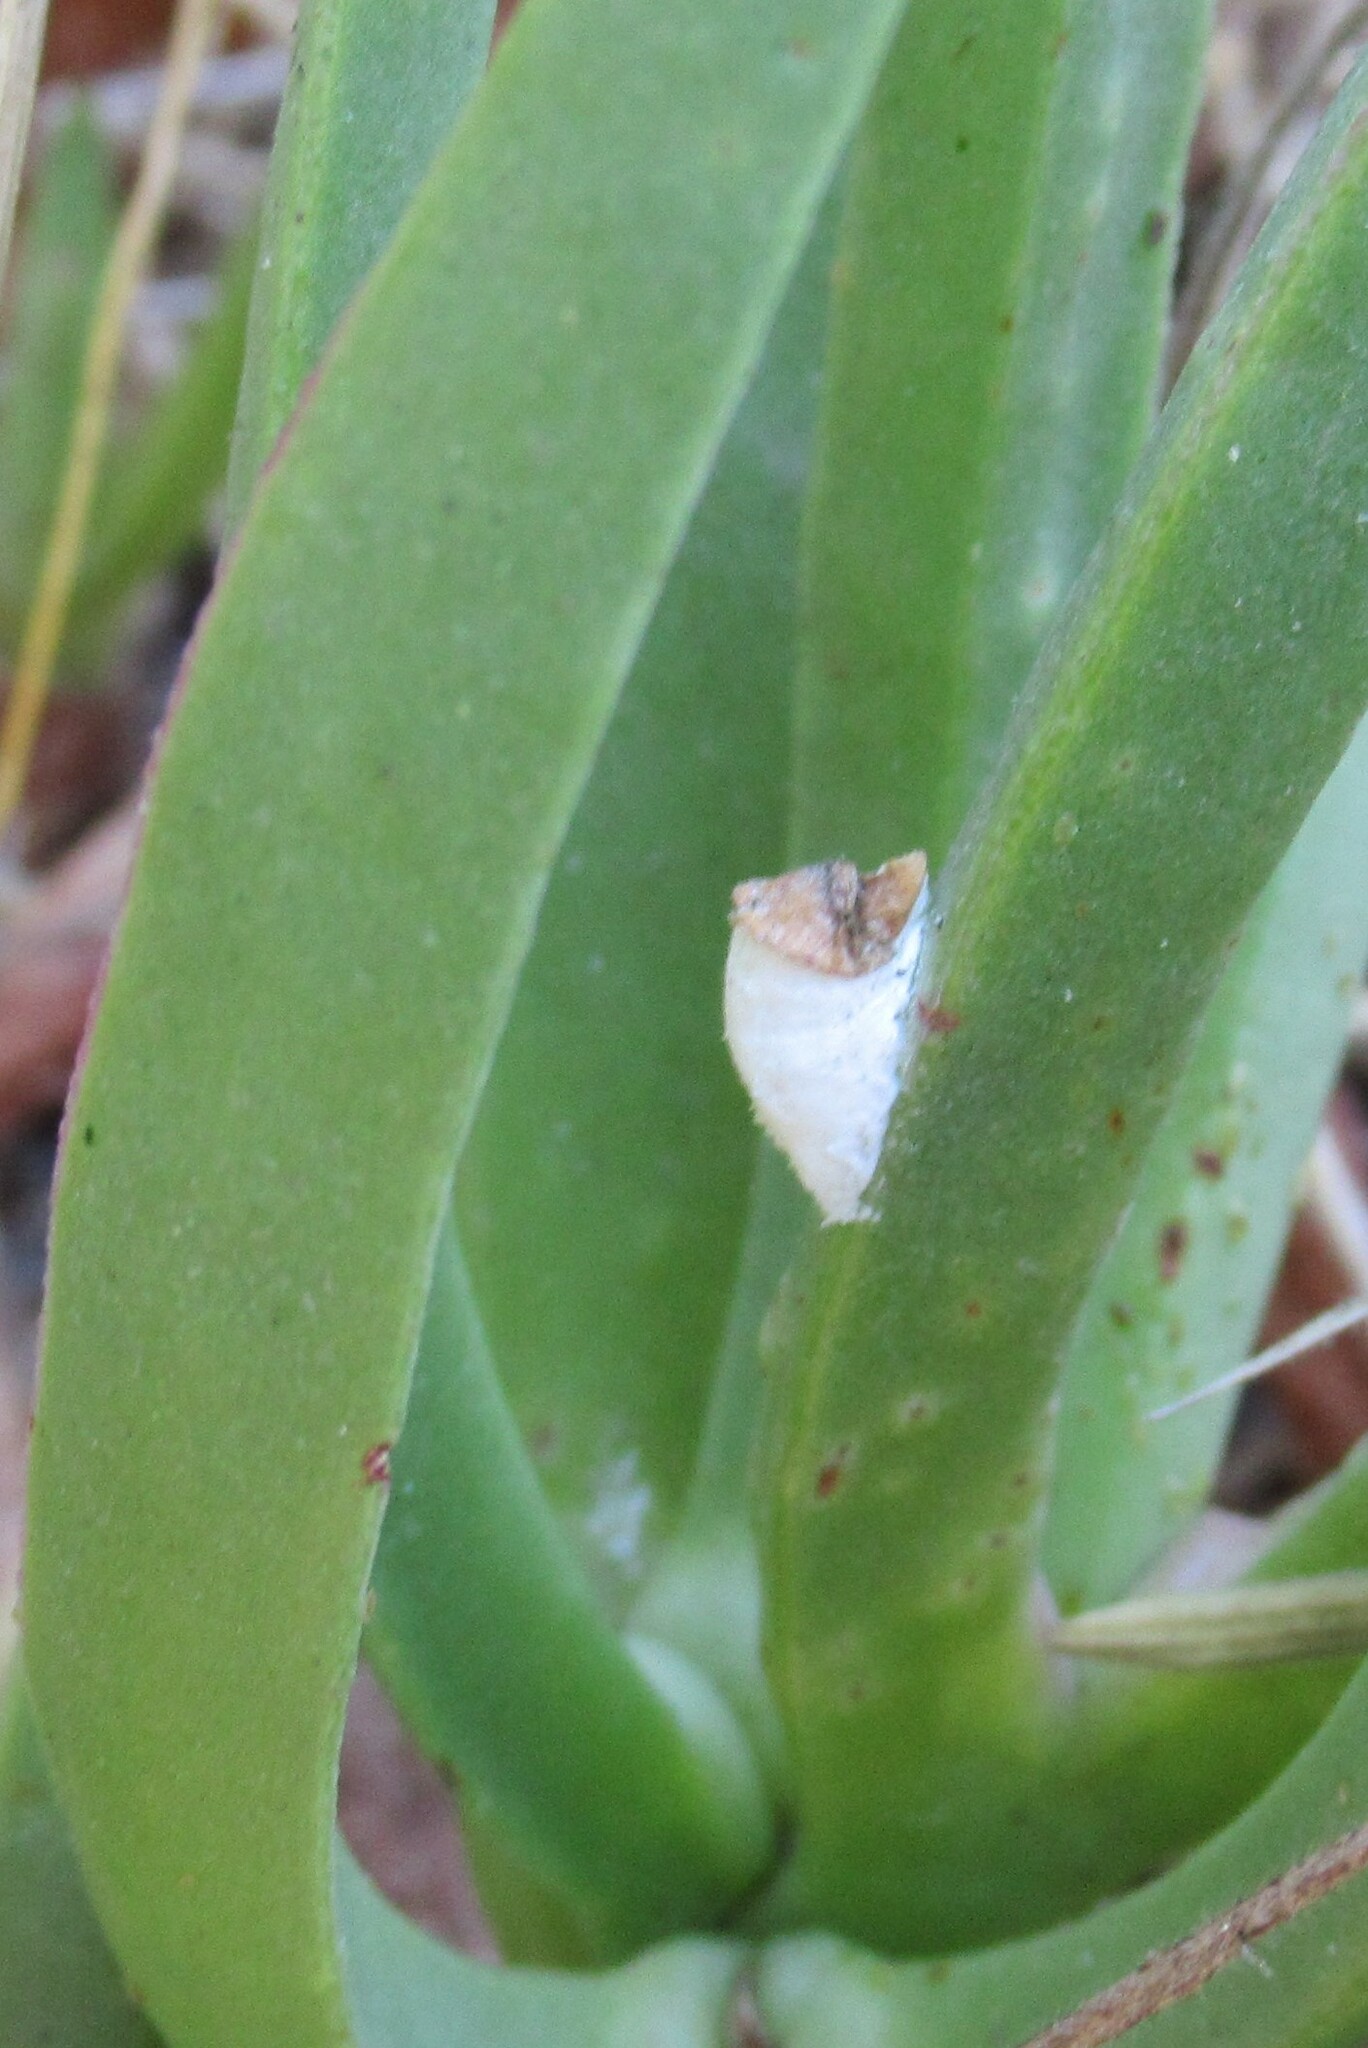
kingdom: Animalia
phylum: Arthropoda
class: Insecta
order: Hemiptera
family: Coccidae
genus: Pulvinariella
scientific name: Pulvinariella mesembryanthemi
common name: Cottony pigface scale
